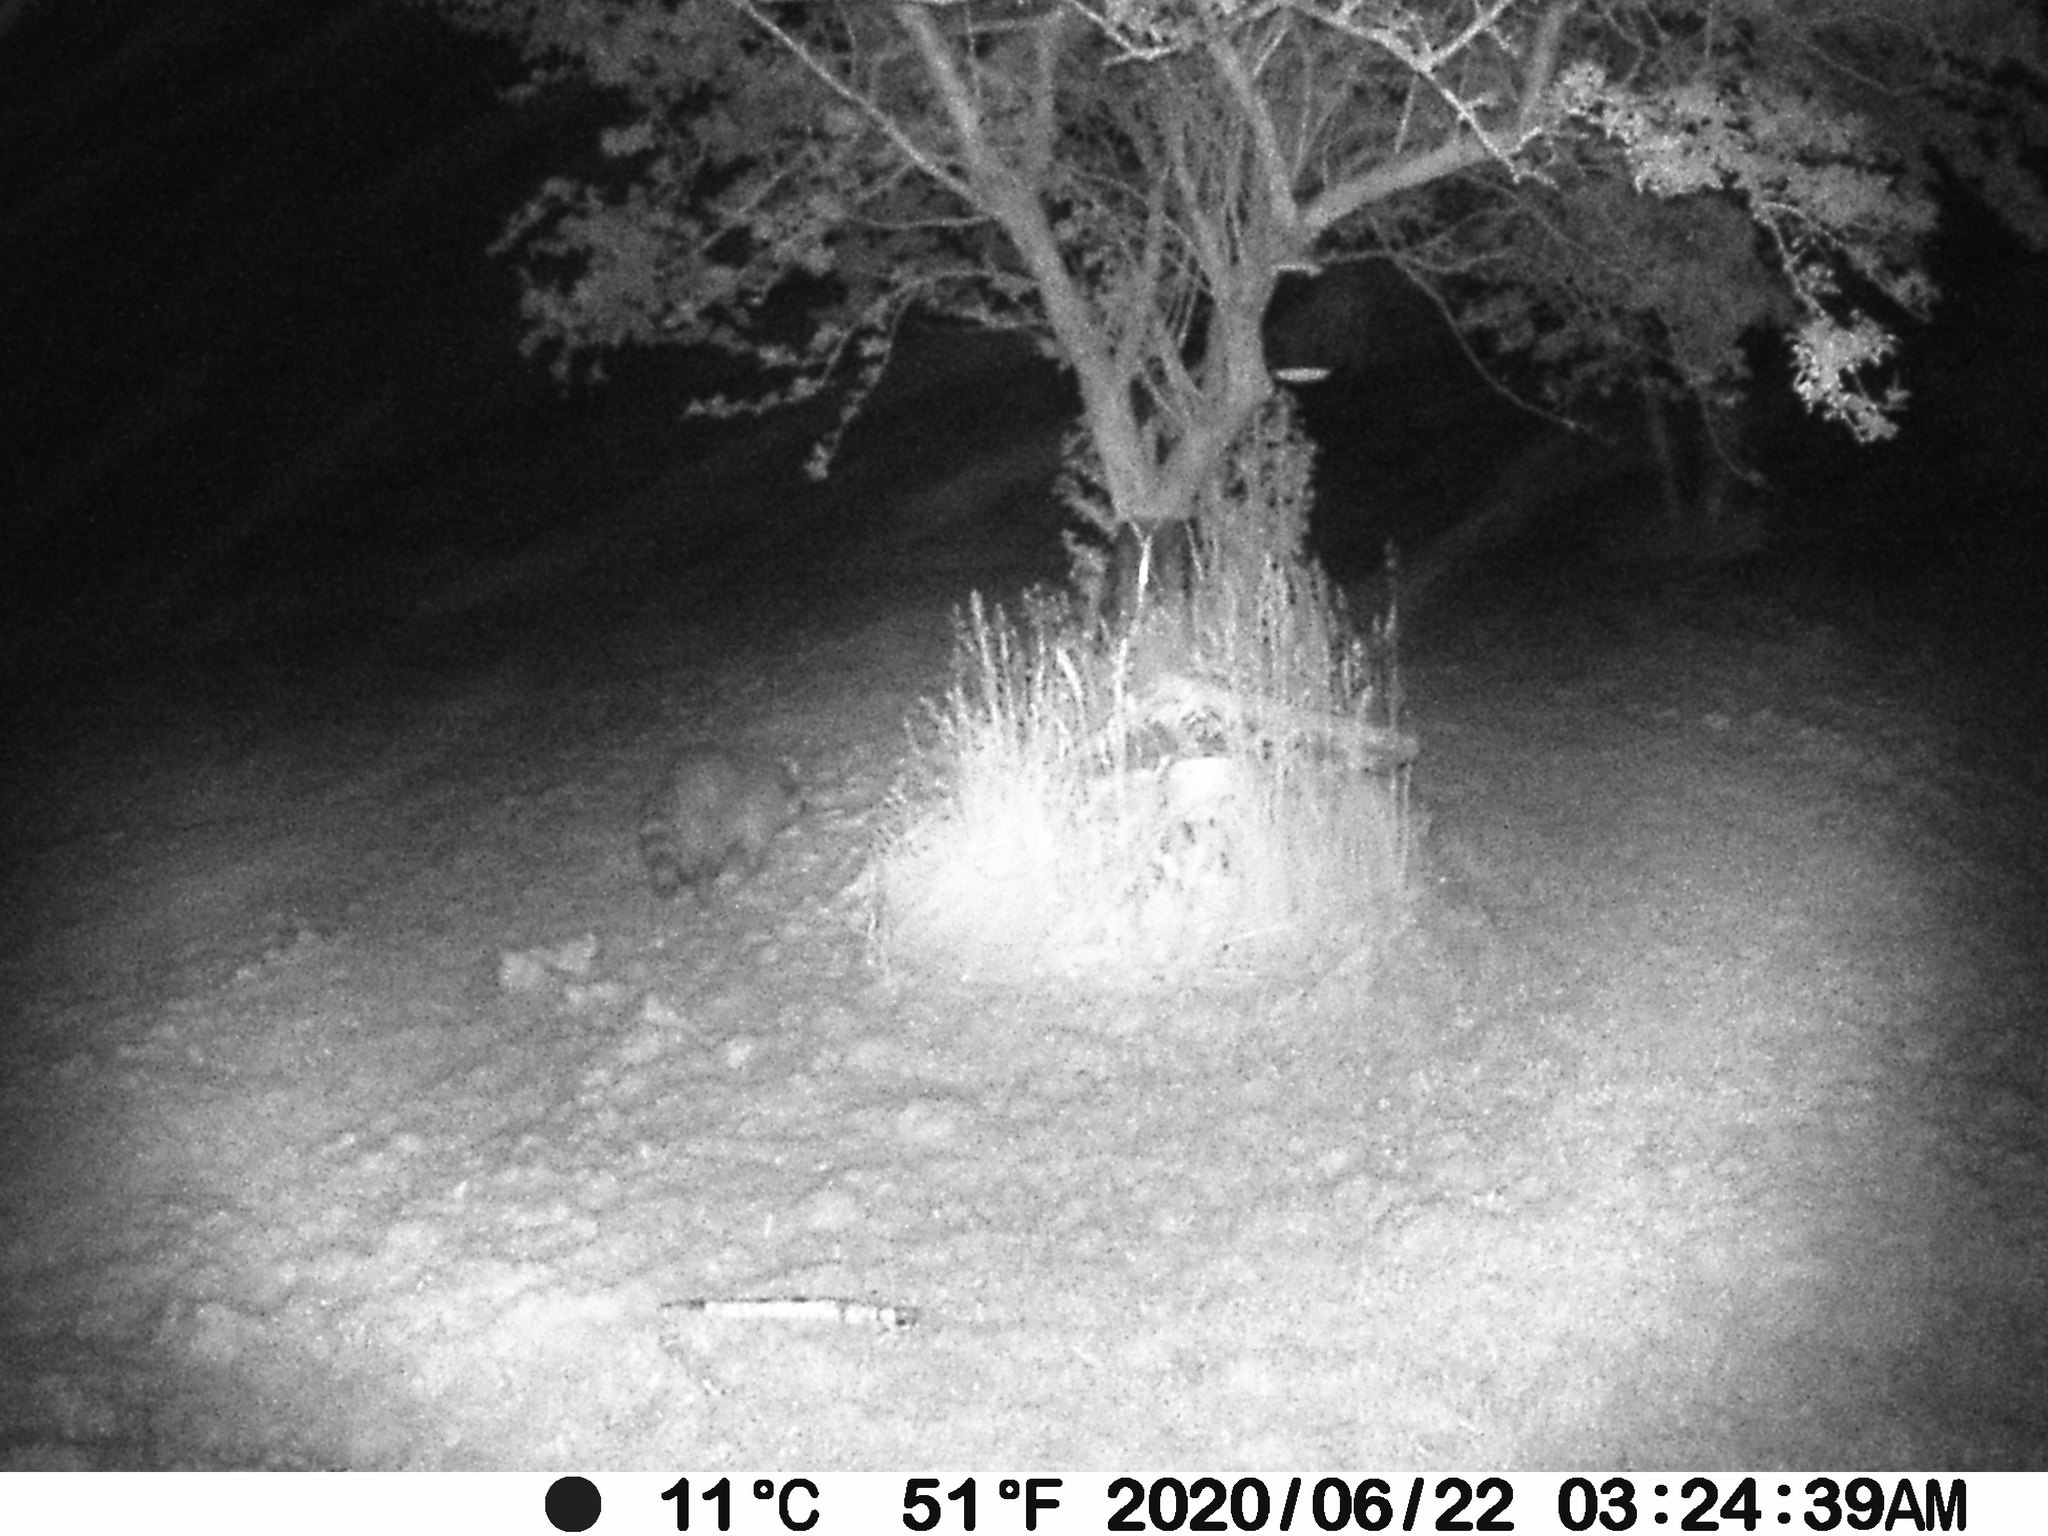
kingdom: Animalia
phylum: Chordata
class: Mammalia
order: Carnivora
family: Procyonidae
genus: Procyon
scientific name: Procyon lotor
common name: Raccoon
